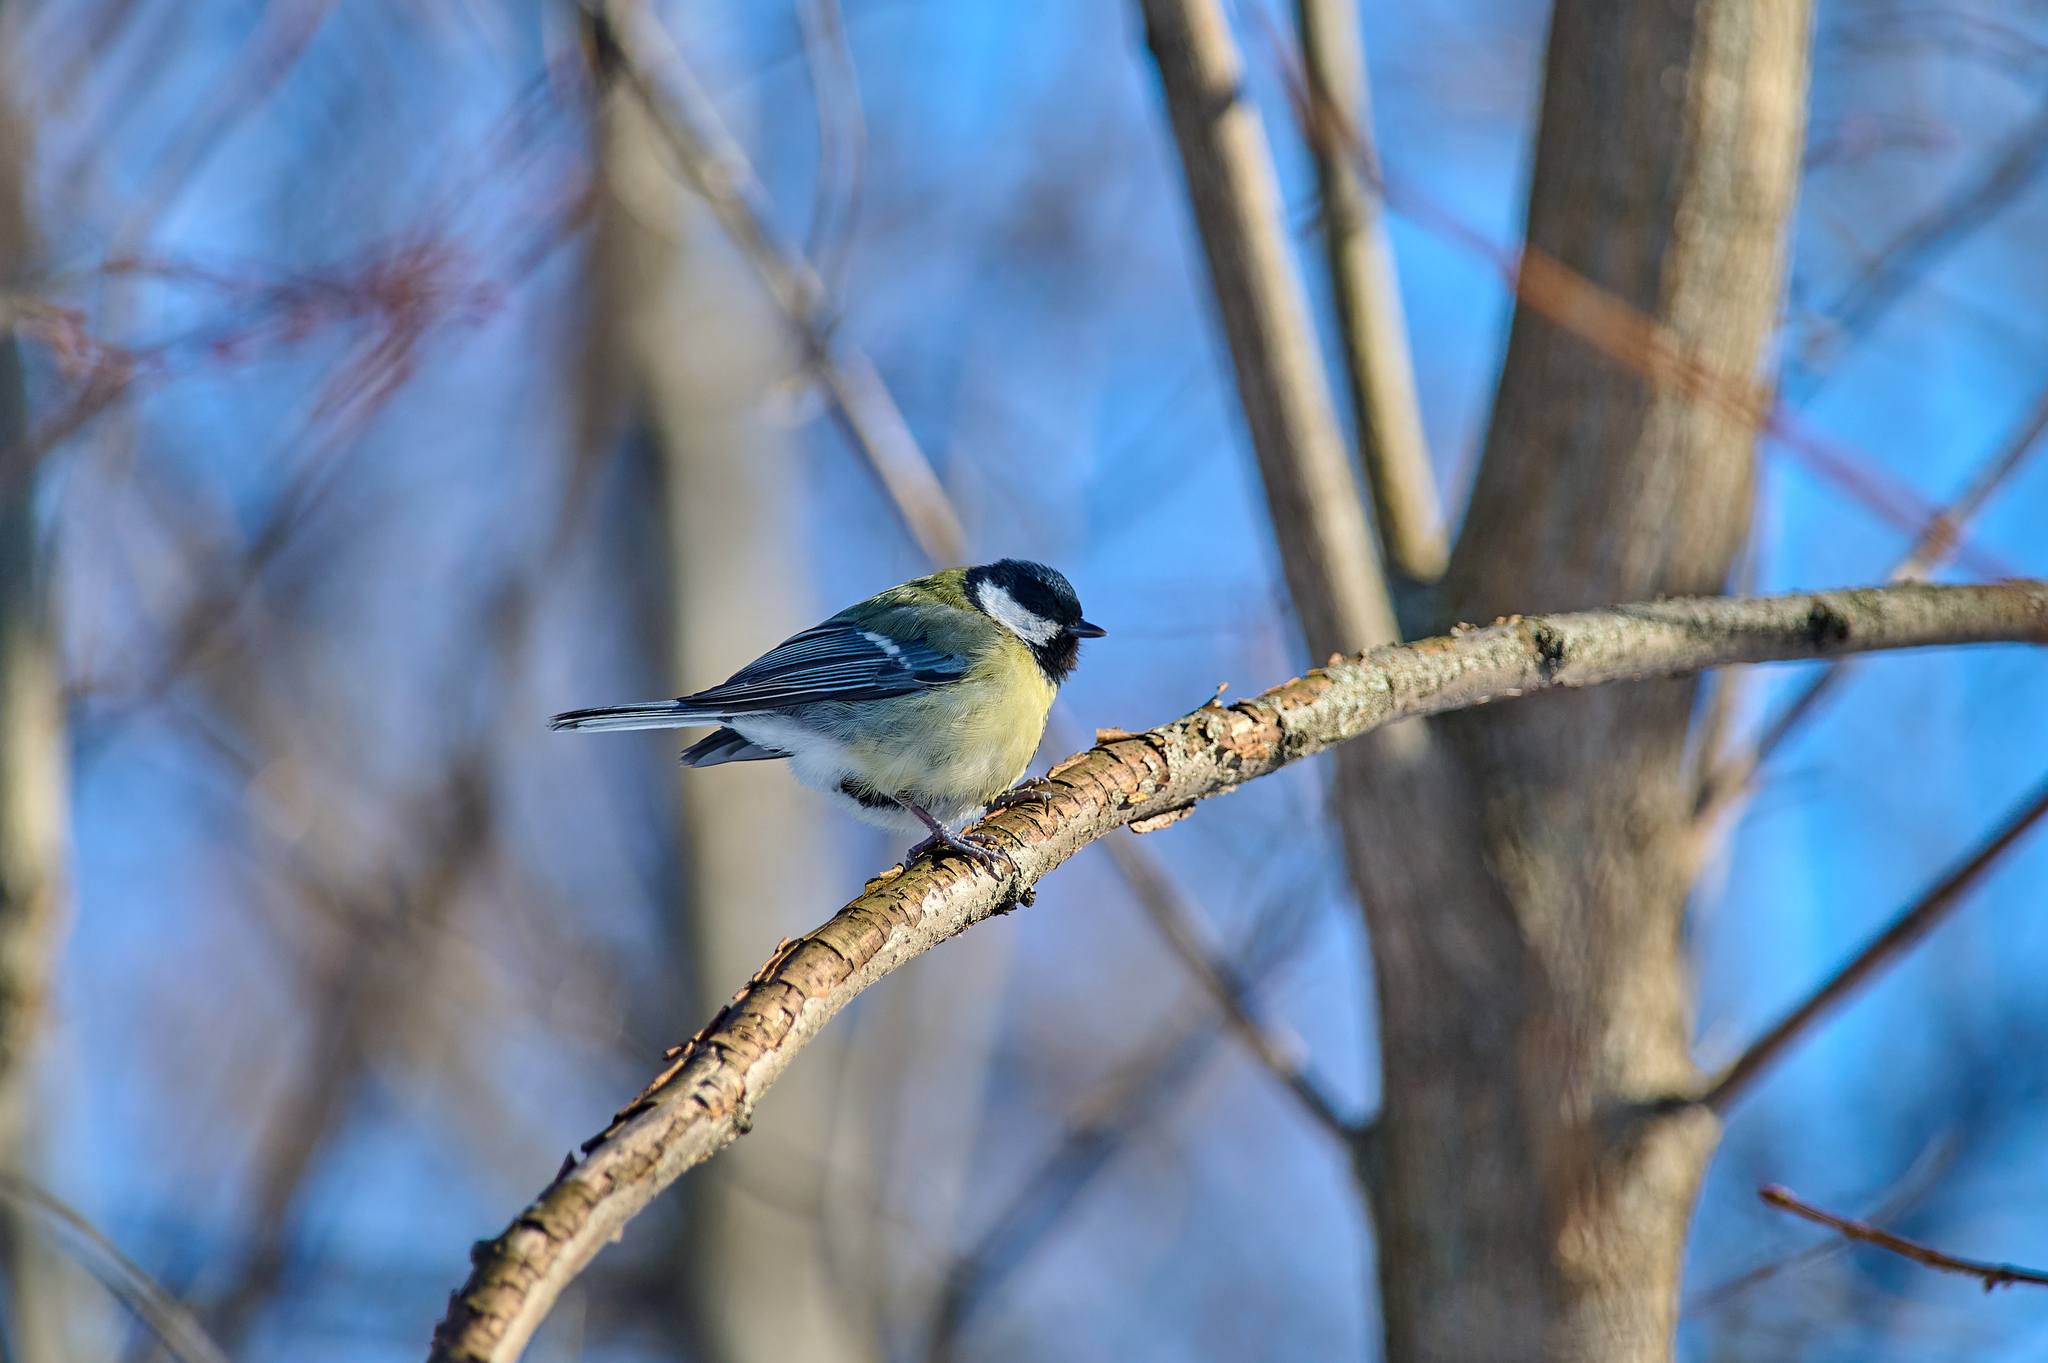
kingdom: Animalia
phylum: Chordata
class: Aves
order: Passeriformes
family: Paridae
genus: Parus
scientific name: Parus major
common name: Great tit
